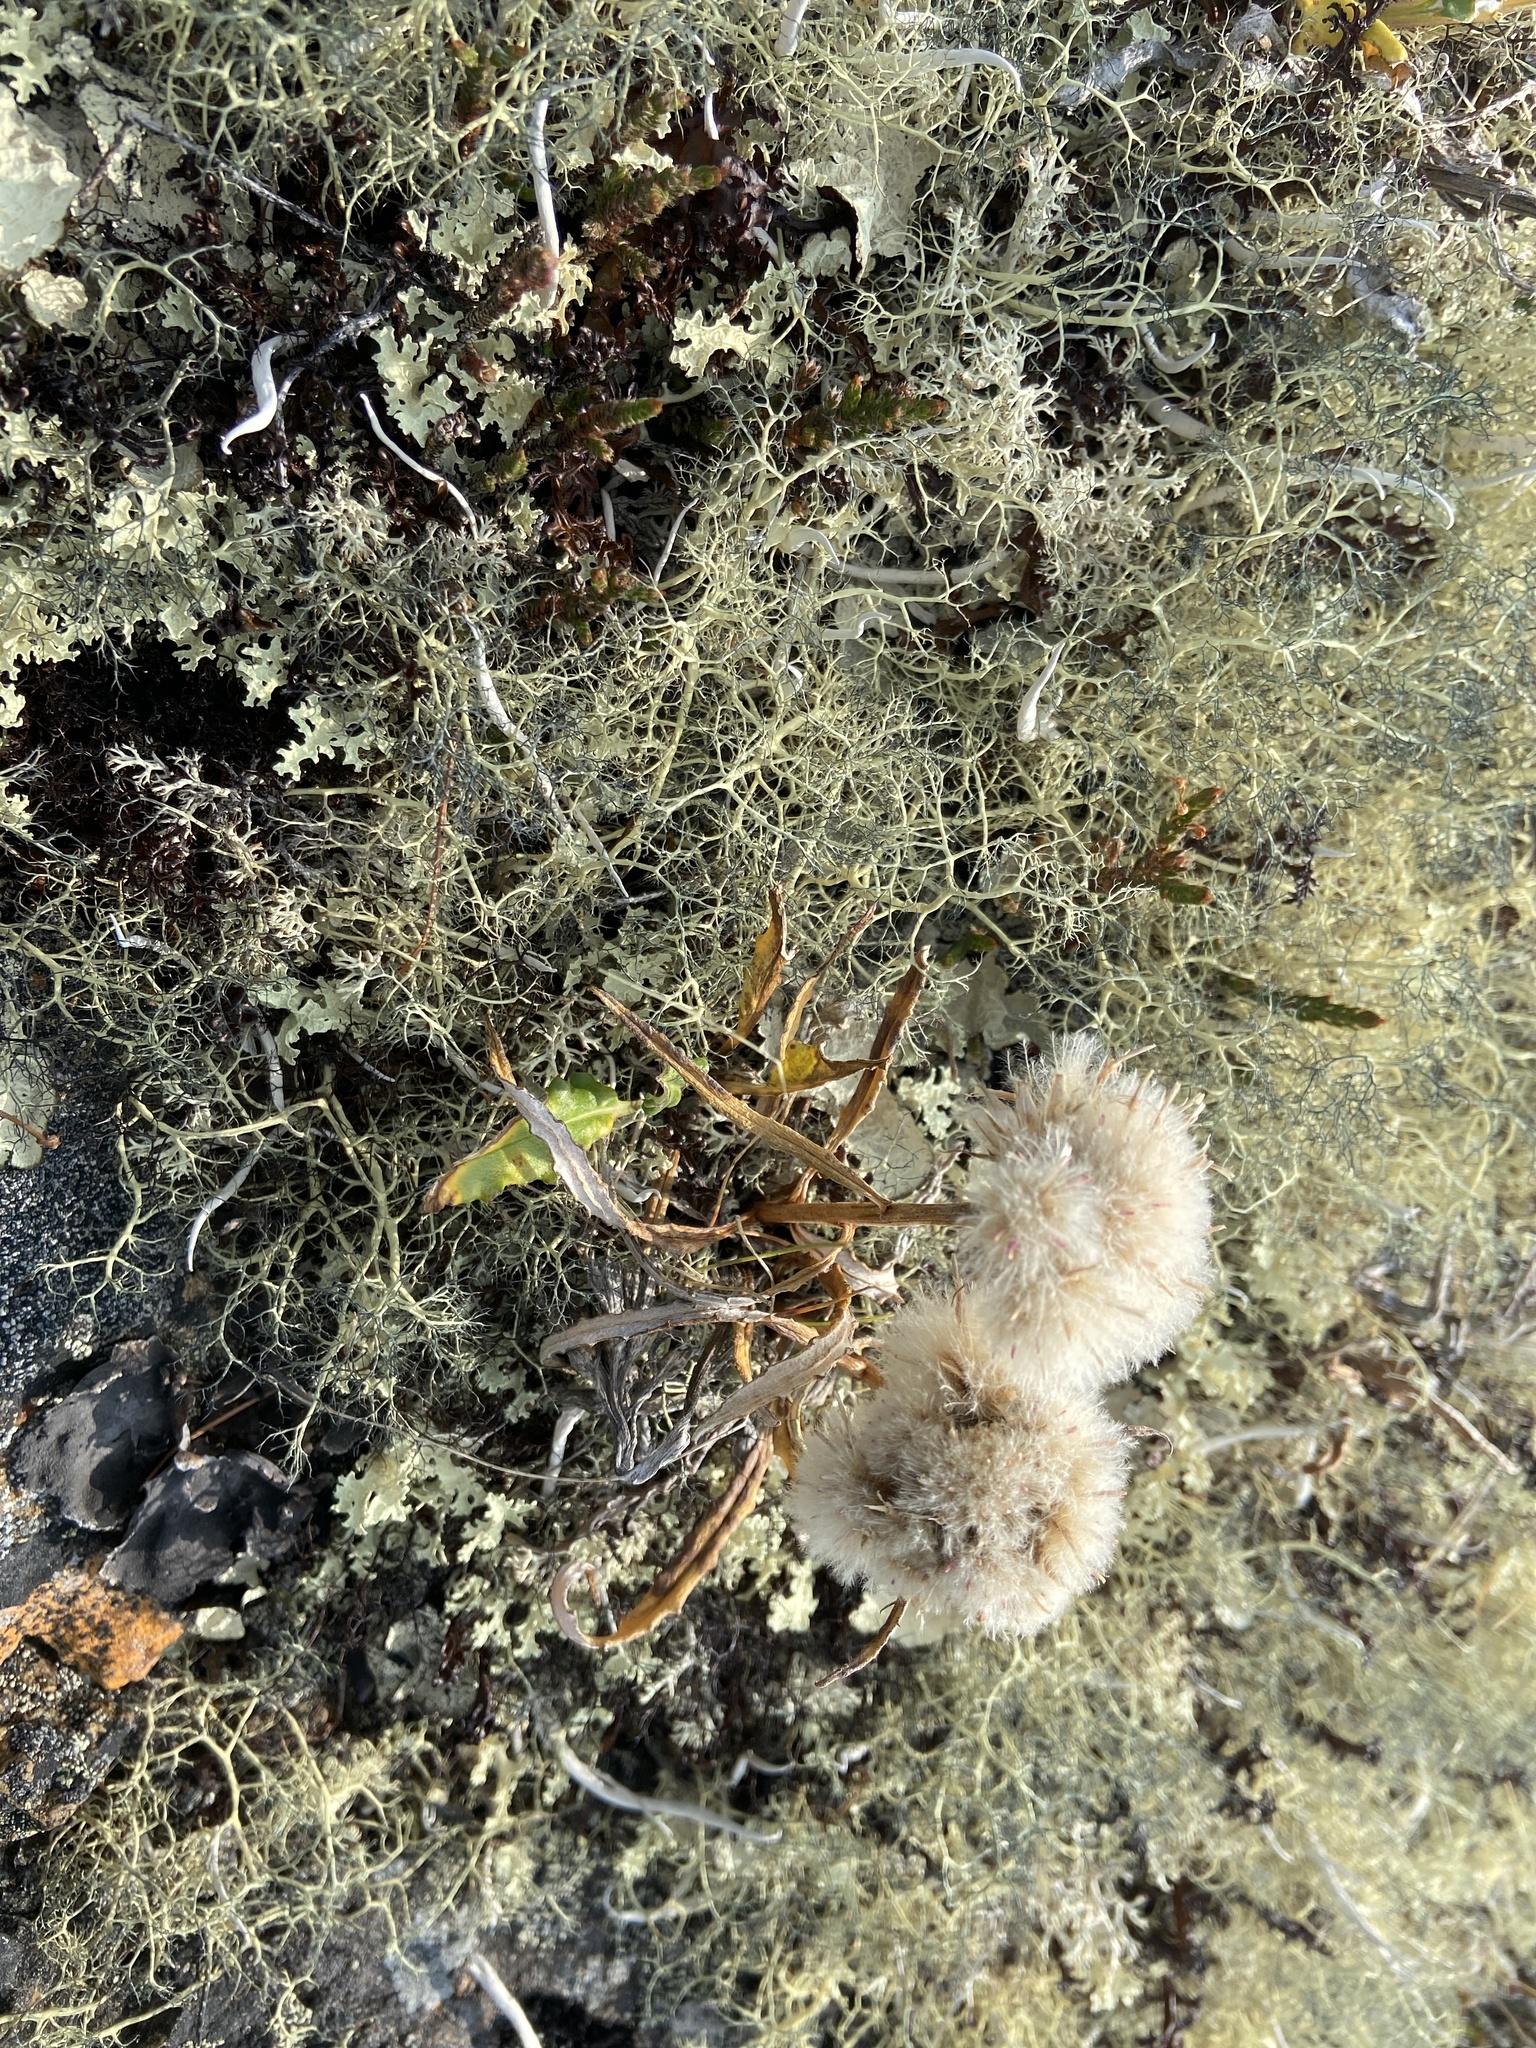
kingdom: Plantae
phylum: Tracheophyta
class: Magnoliopsida
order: Asterales
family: Asteraceae
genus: Saussurea
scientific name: Saussurea tilesii
